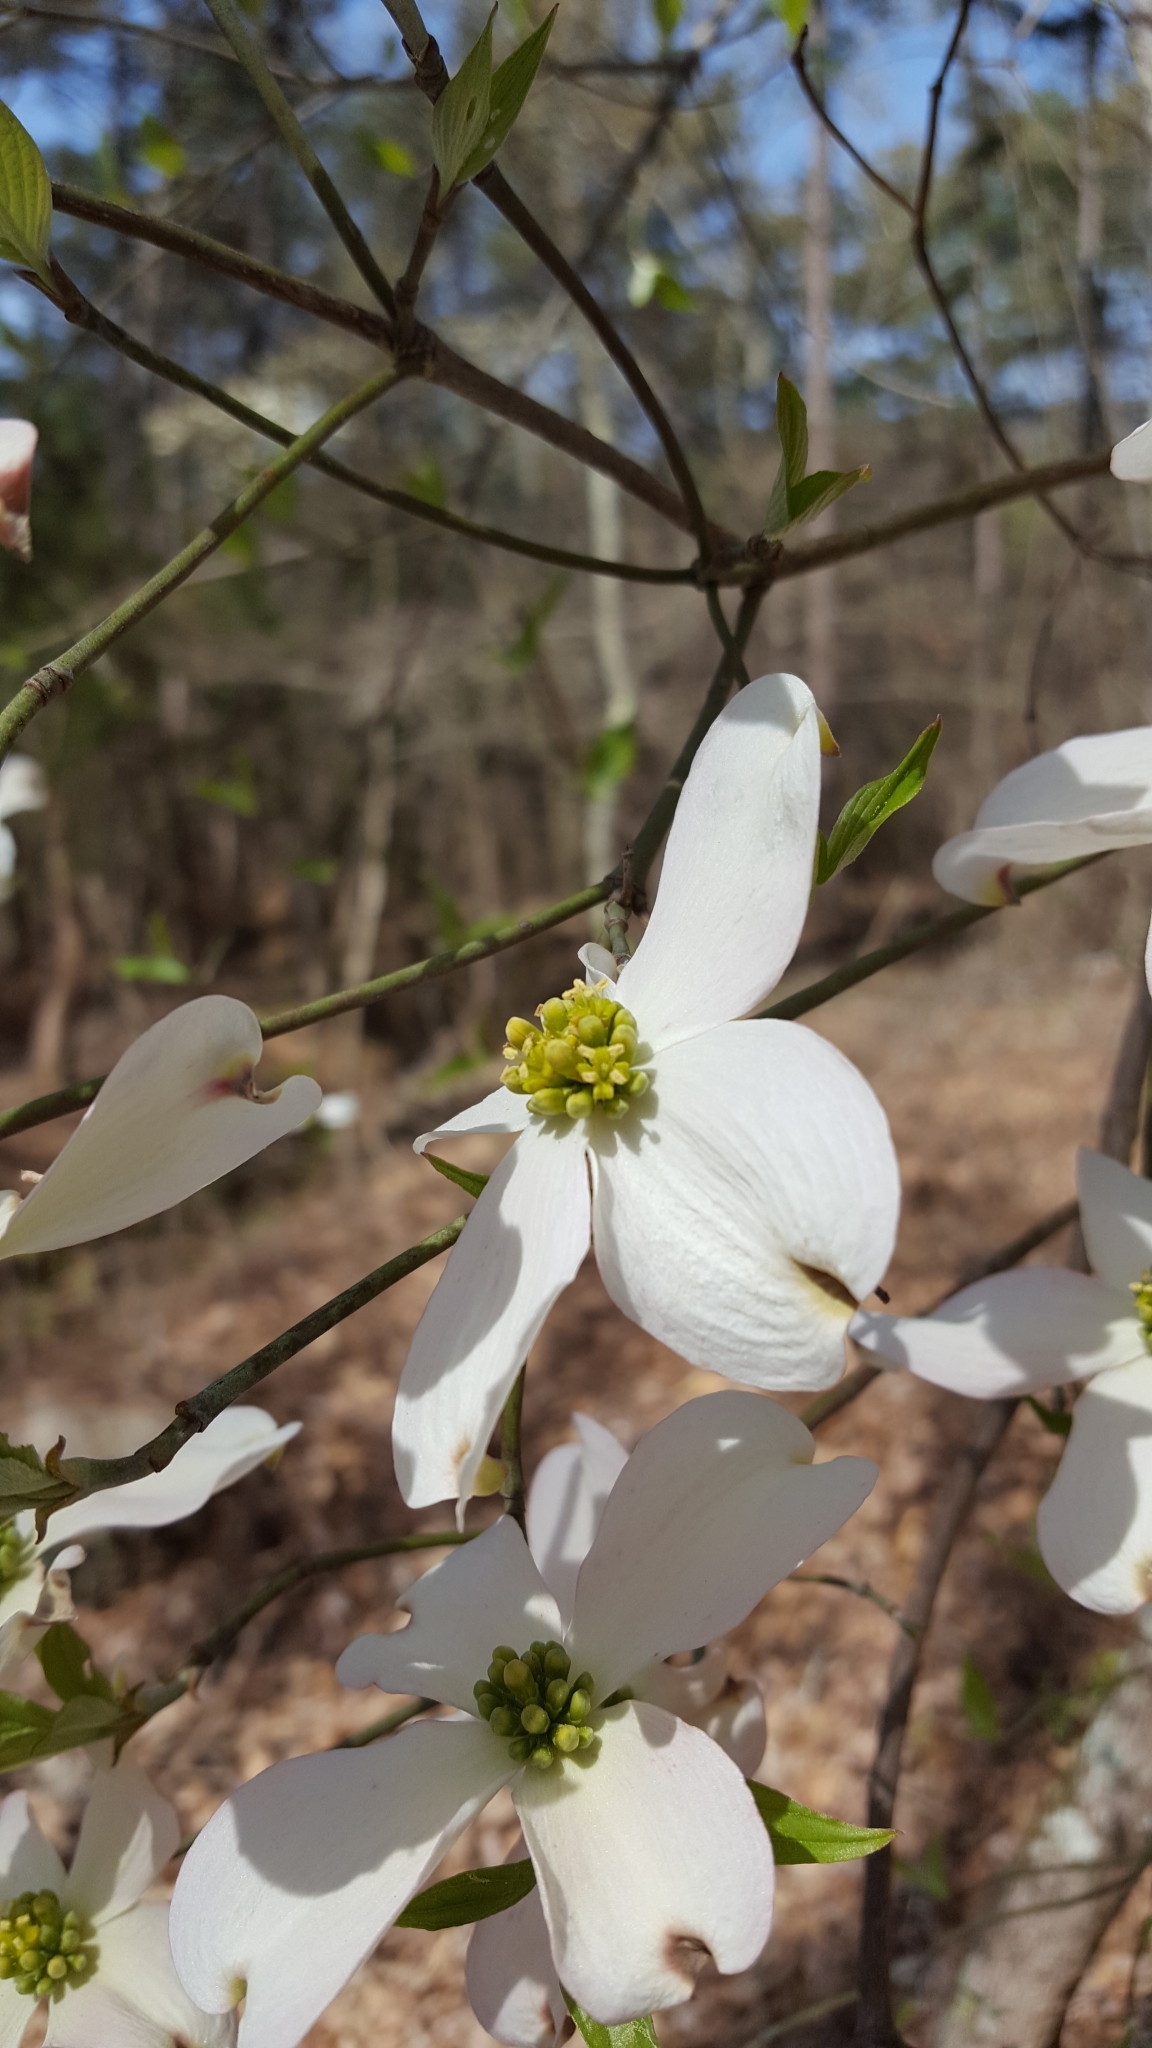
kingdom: Plantae
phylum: Tracheophyta
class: Magnoliopsida
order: Cornales
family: Cornaceae
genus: Cornus
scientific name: Cornus florida
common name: Flowering dogwood
